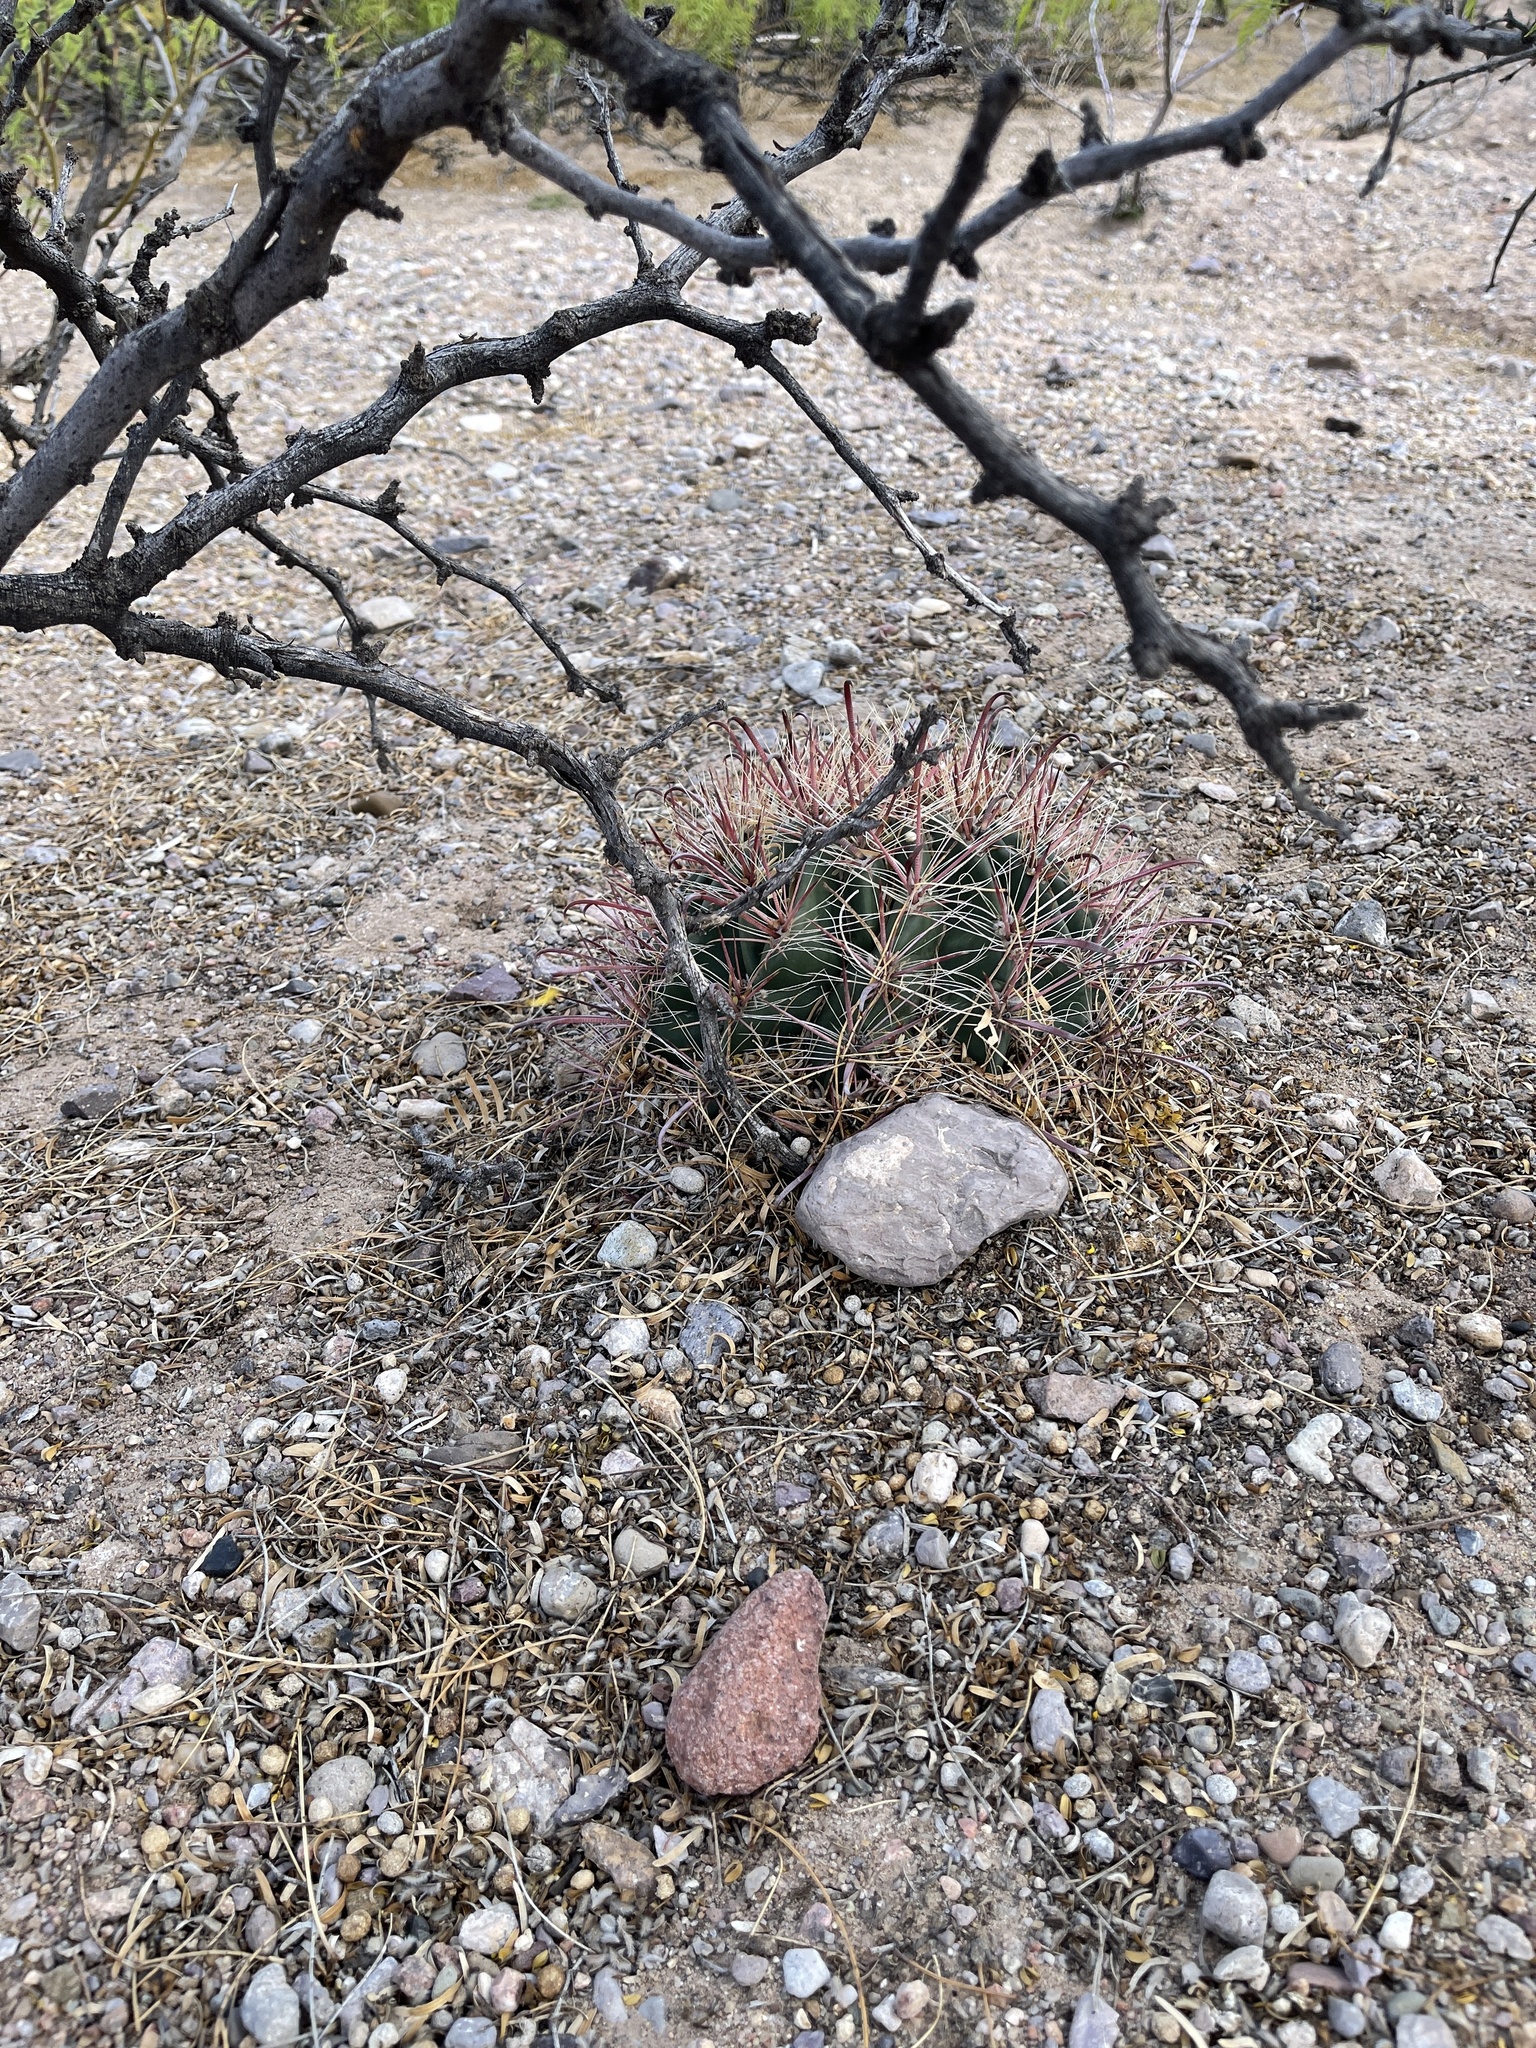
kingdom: Plantae
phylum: Tracheophyta
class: Magnoliopsida
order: Caryophyllales
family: Cactaceae
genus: Ferocactus
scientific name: Ferocactus wislizeni
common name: Candy barrel cactus
